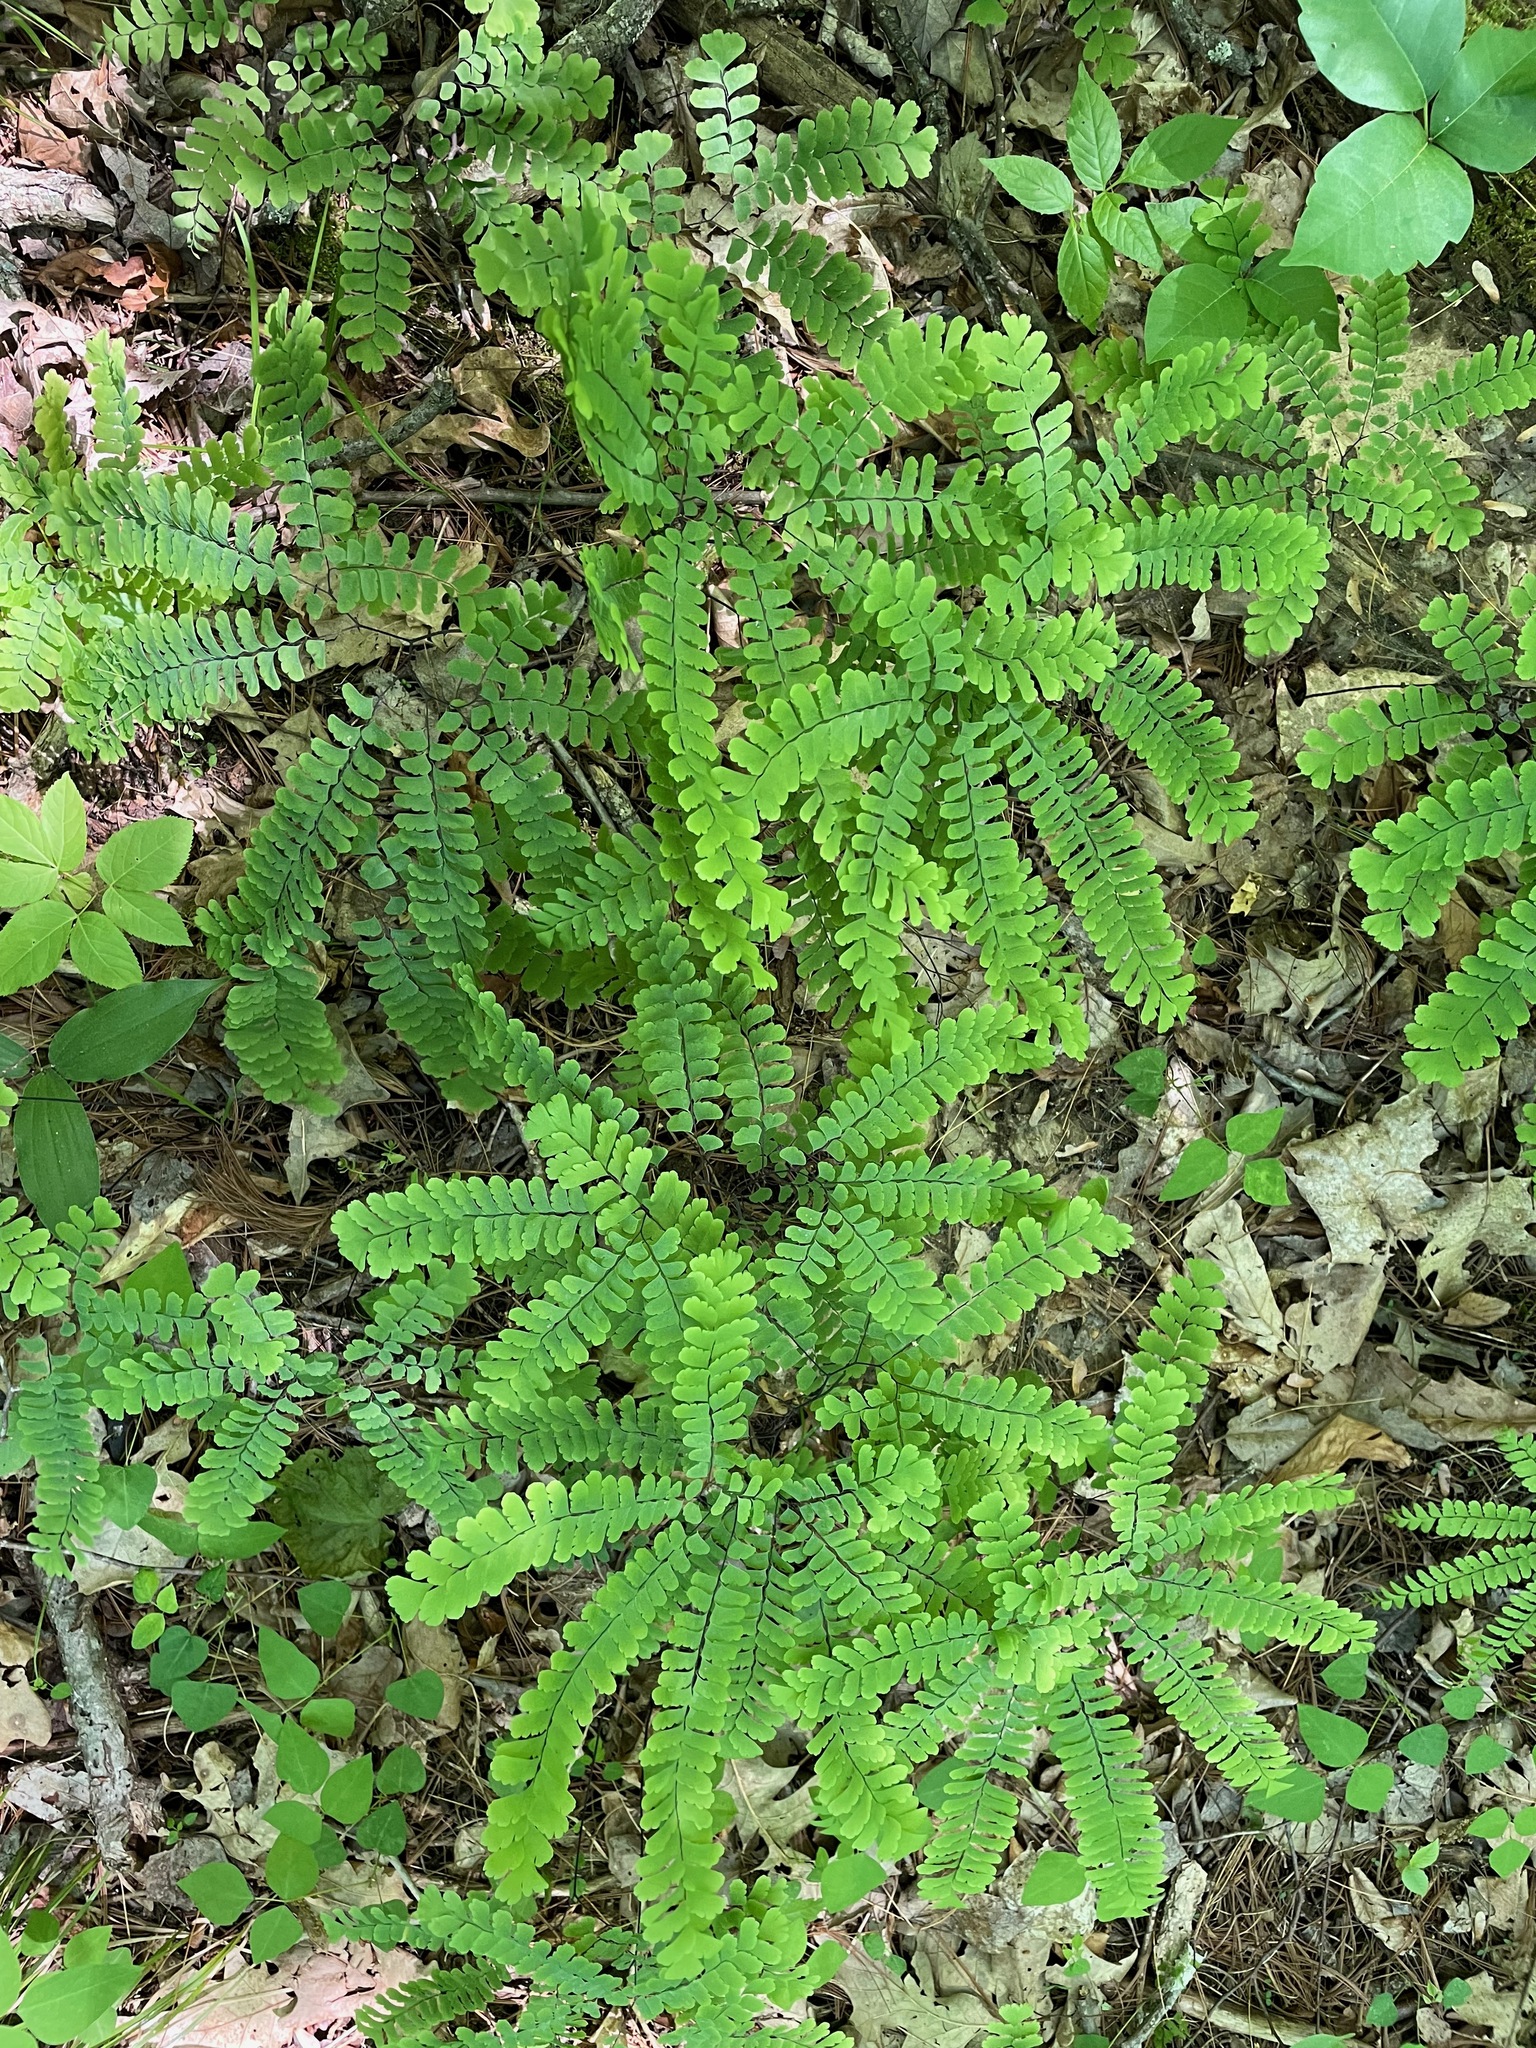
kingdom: Plantae
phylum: Tracheophyta
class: Polypodiopsida
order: Polypodiales
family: Pteridaceae
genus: Adiantum
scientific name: Adiantum pedatum
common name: Five-finger fern
